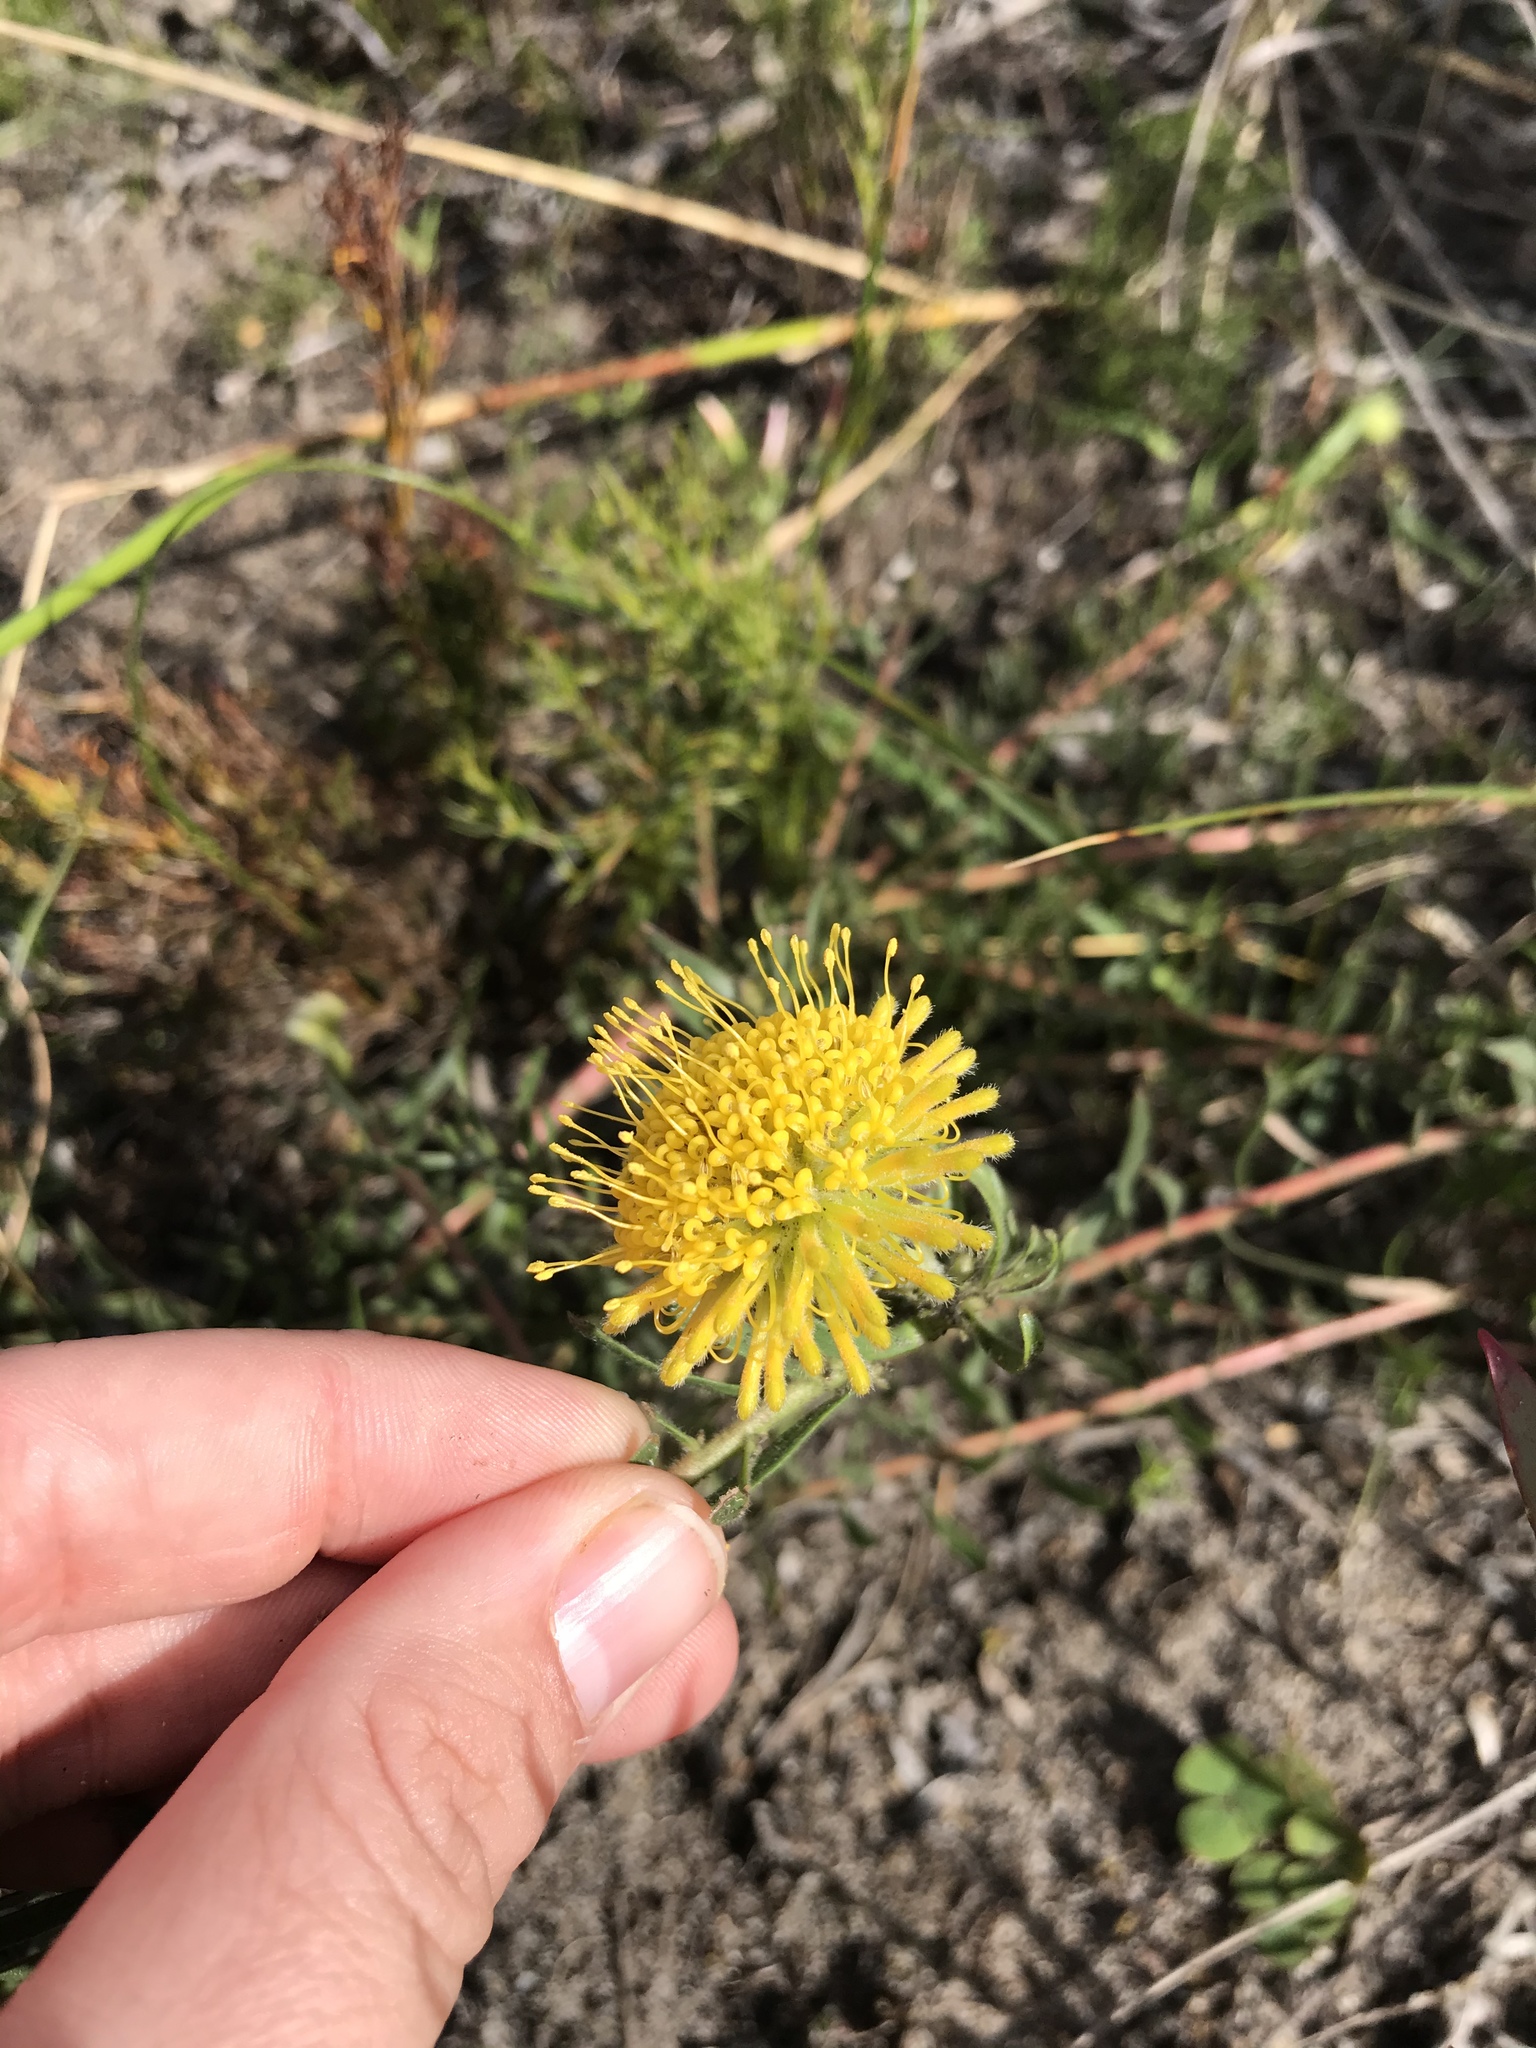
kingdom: Plantae
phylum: Tracheophyta
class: Magnoliopsida
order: Proteales
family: Proteaceae
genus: Leucospermum
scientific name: Leucospermum prostratum
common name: Yellow-trailing pincushion
